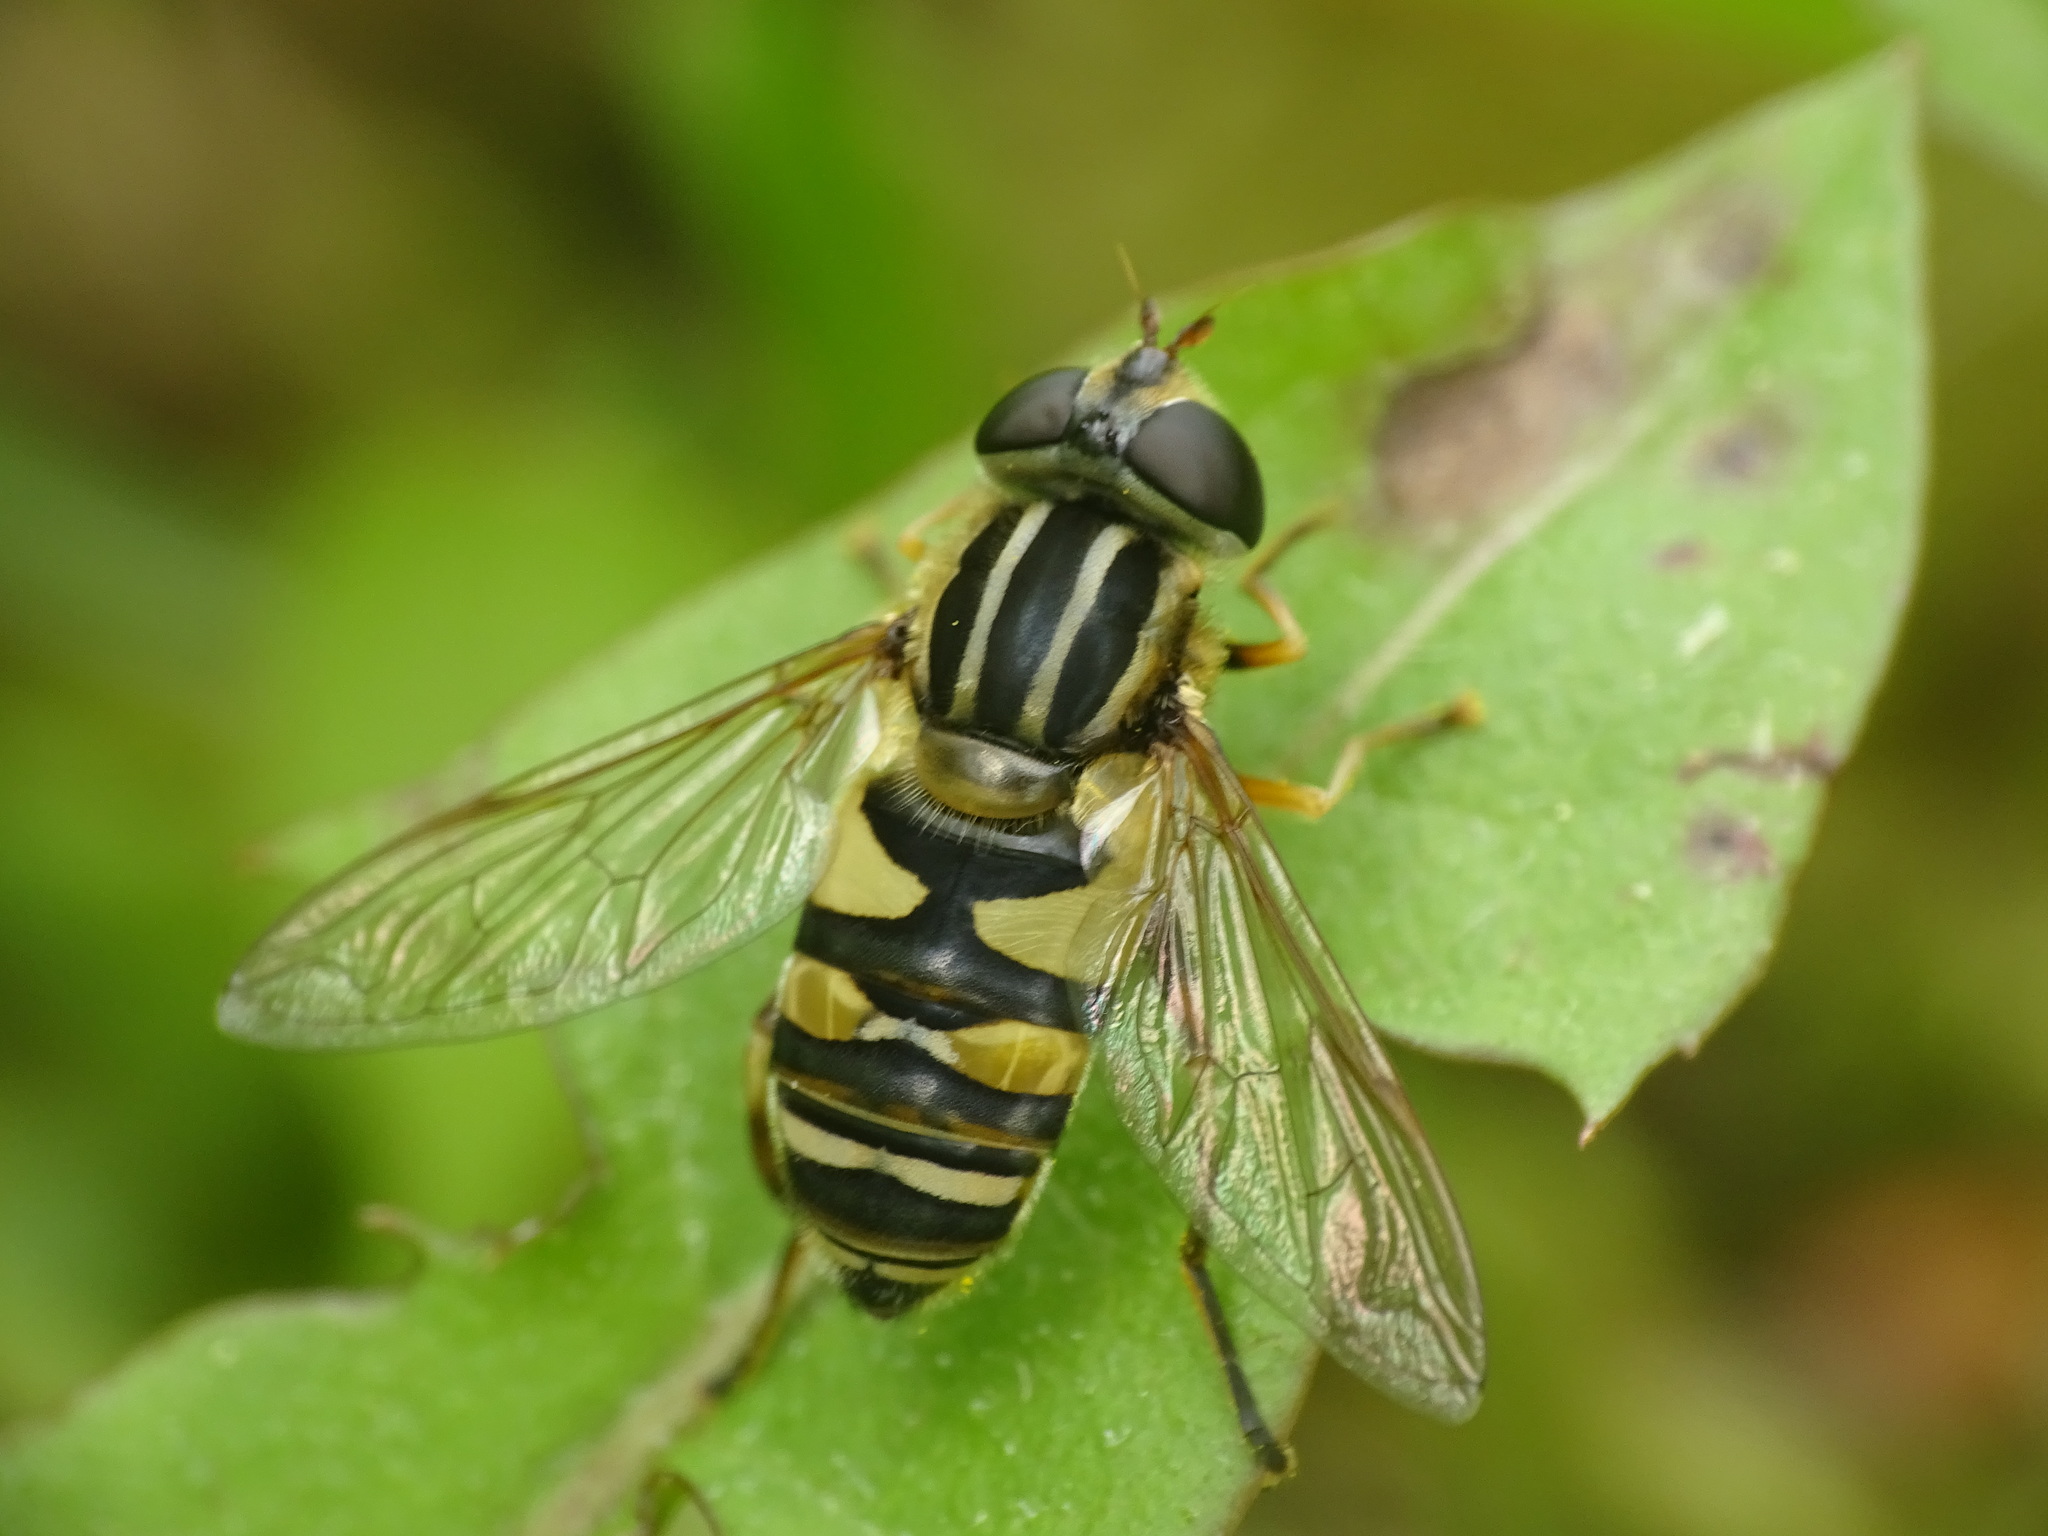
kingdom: Animalia
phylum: Arthropoda
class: Insecta
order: Diptera
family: Syrphidae
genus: Helophilus
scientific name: Helophilus fasciatus
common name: Narrow-headed marsh fly
